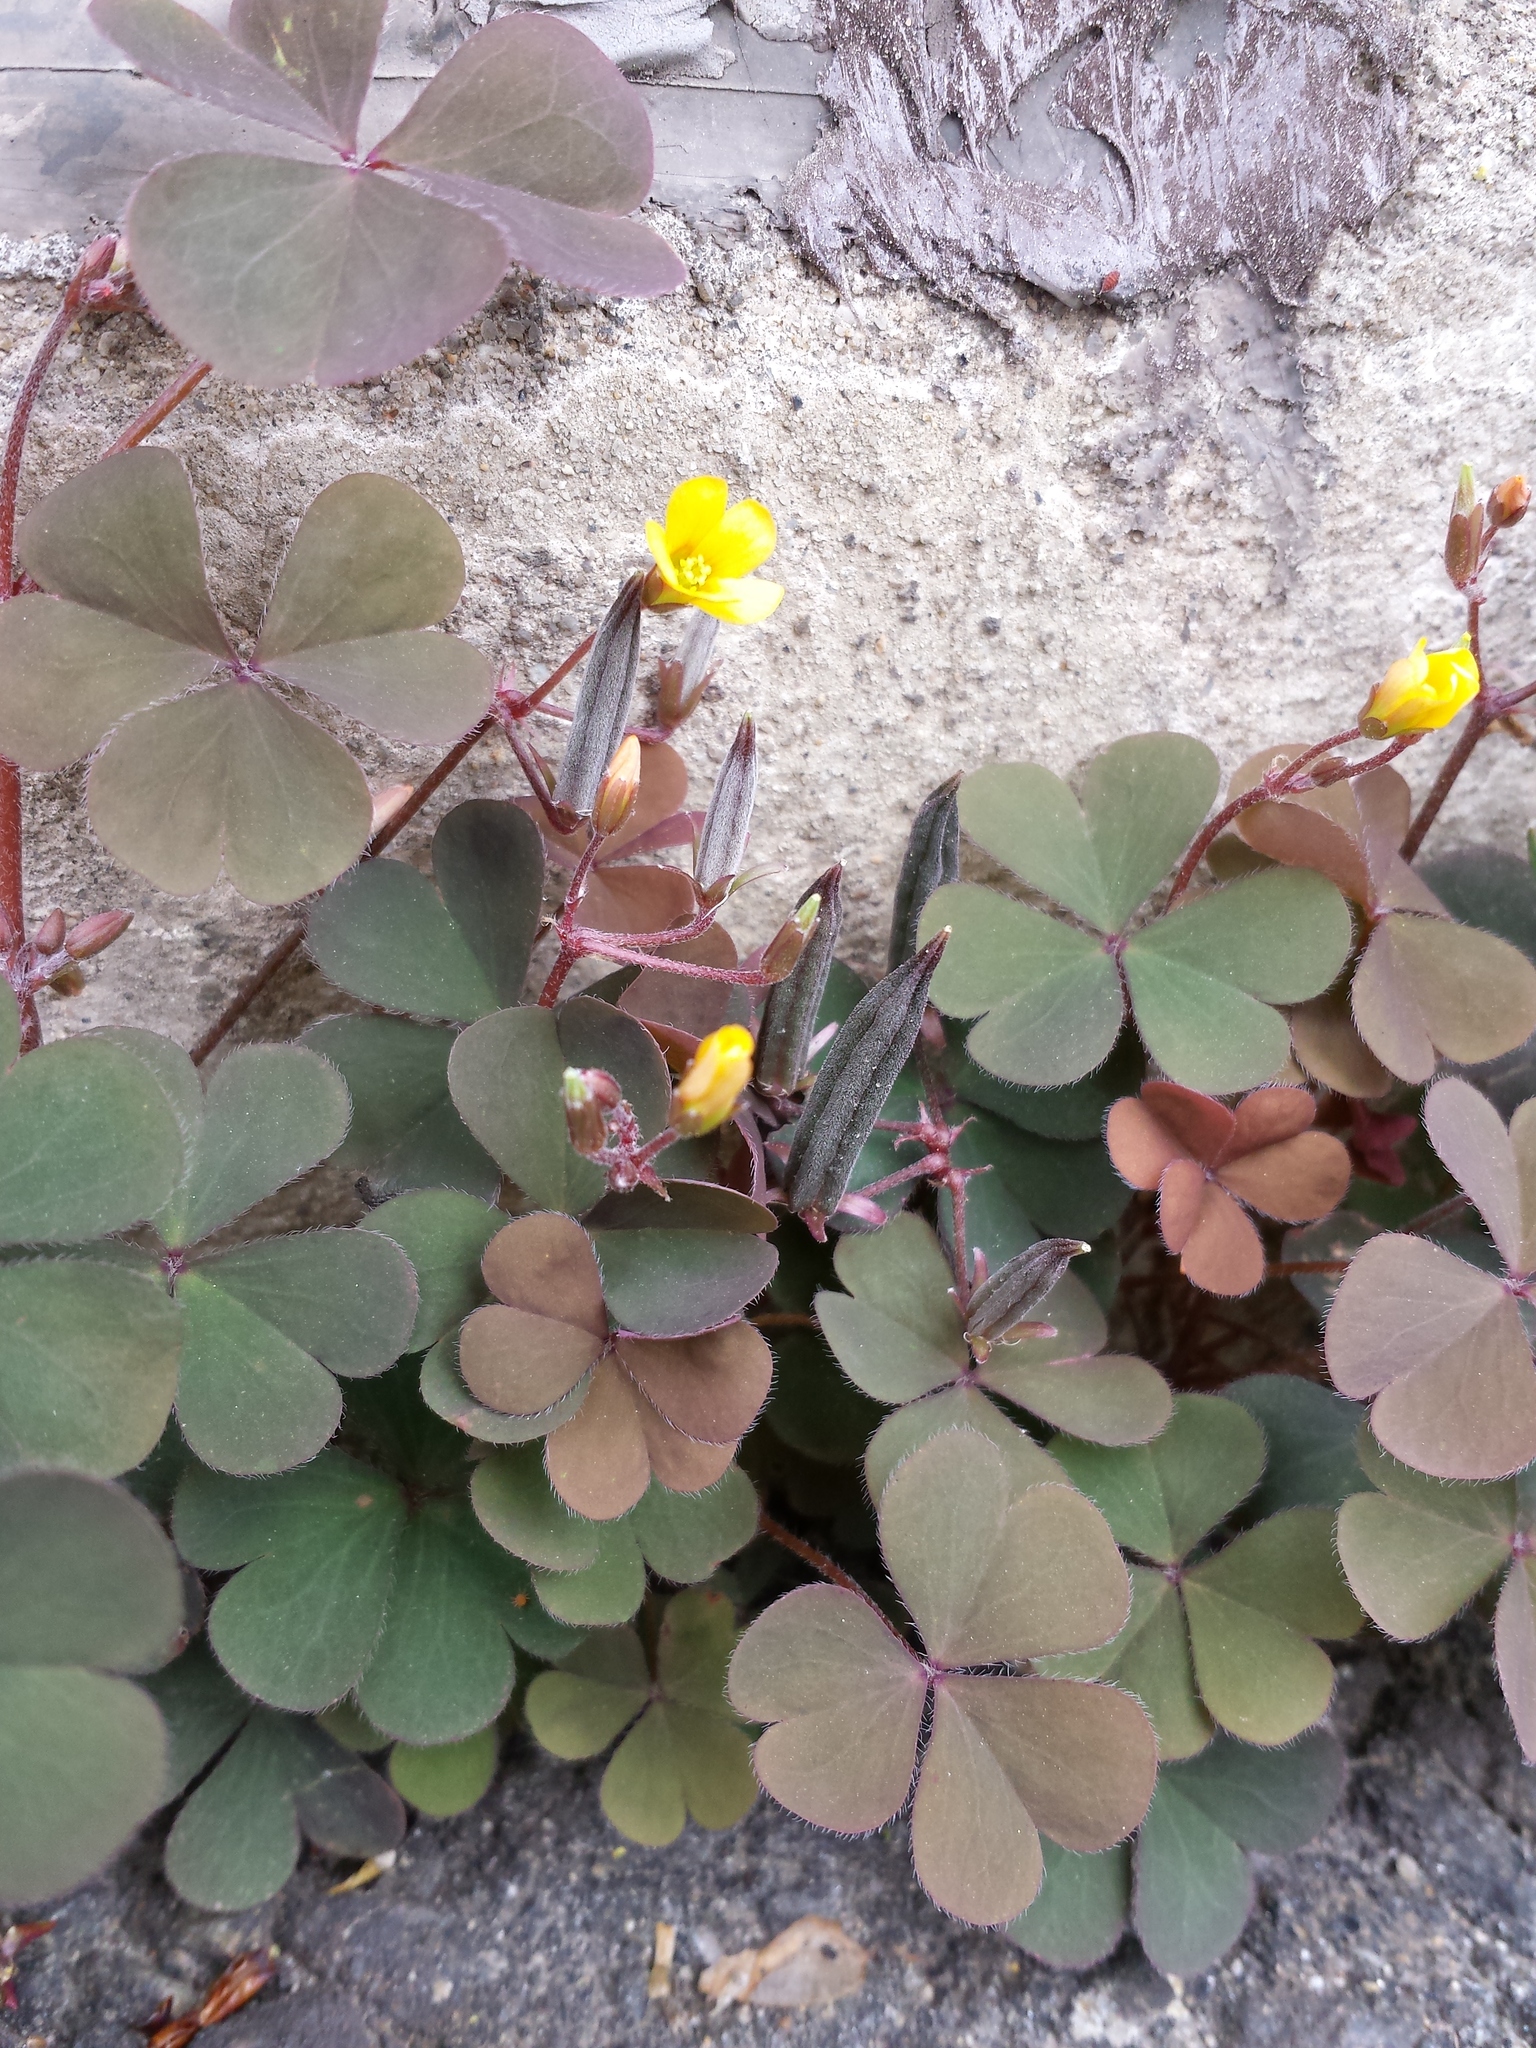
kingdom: Plantae
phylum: Tracheophyta
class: Magnoliopsida
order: Oxalidales
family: Oxalidaceae
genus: Oxalis
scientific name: Oxalis corniculata
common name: Procumbent yellow-sorrel
